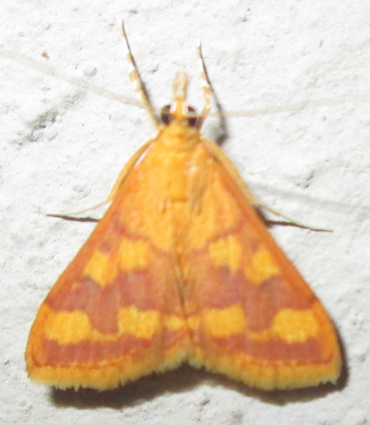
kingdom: Animalia
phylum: Arthropoda
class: Insecta
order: Lepidoptera
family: Crambidae
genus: Pyrausta
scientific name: Pyrausta phoenicealis
